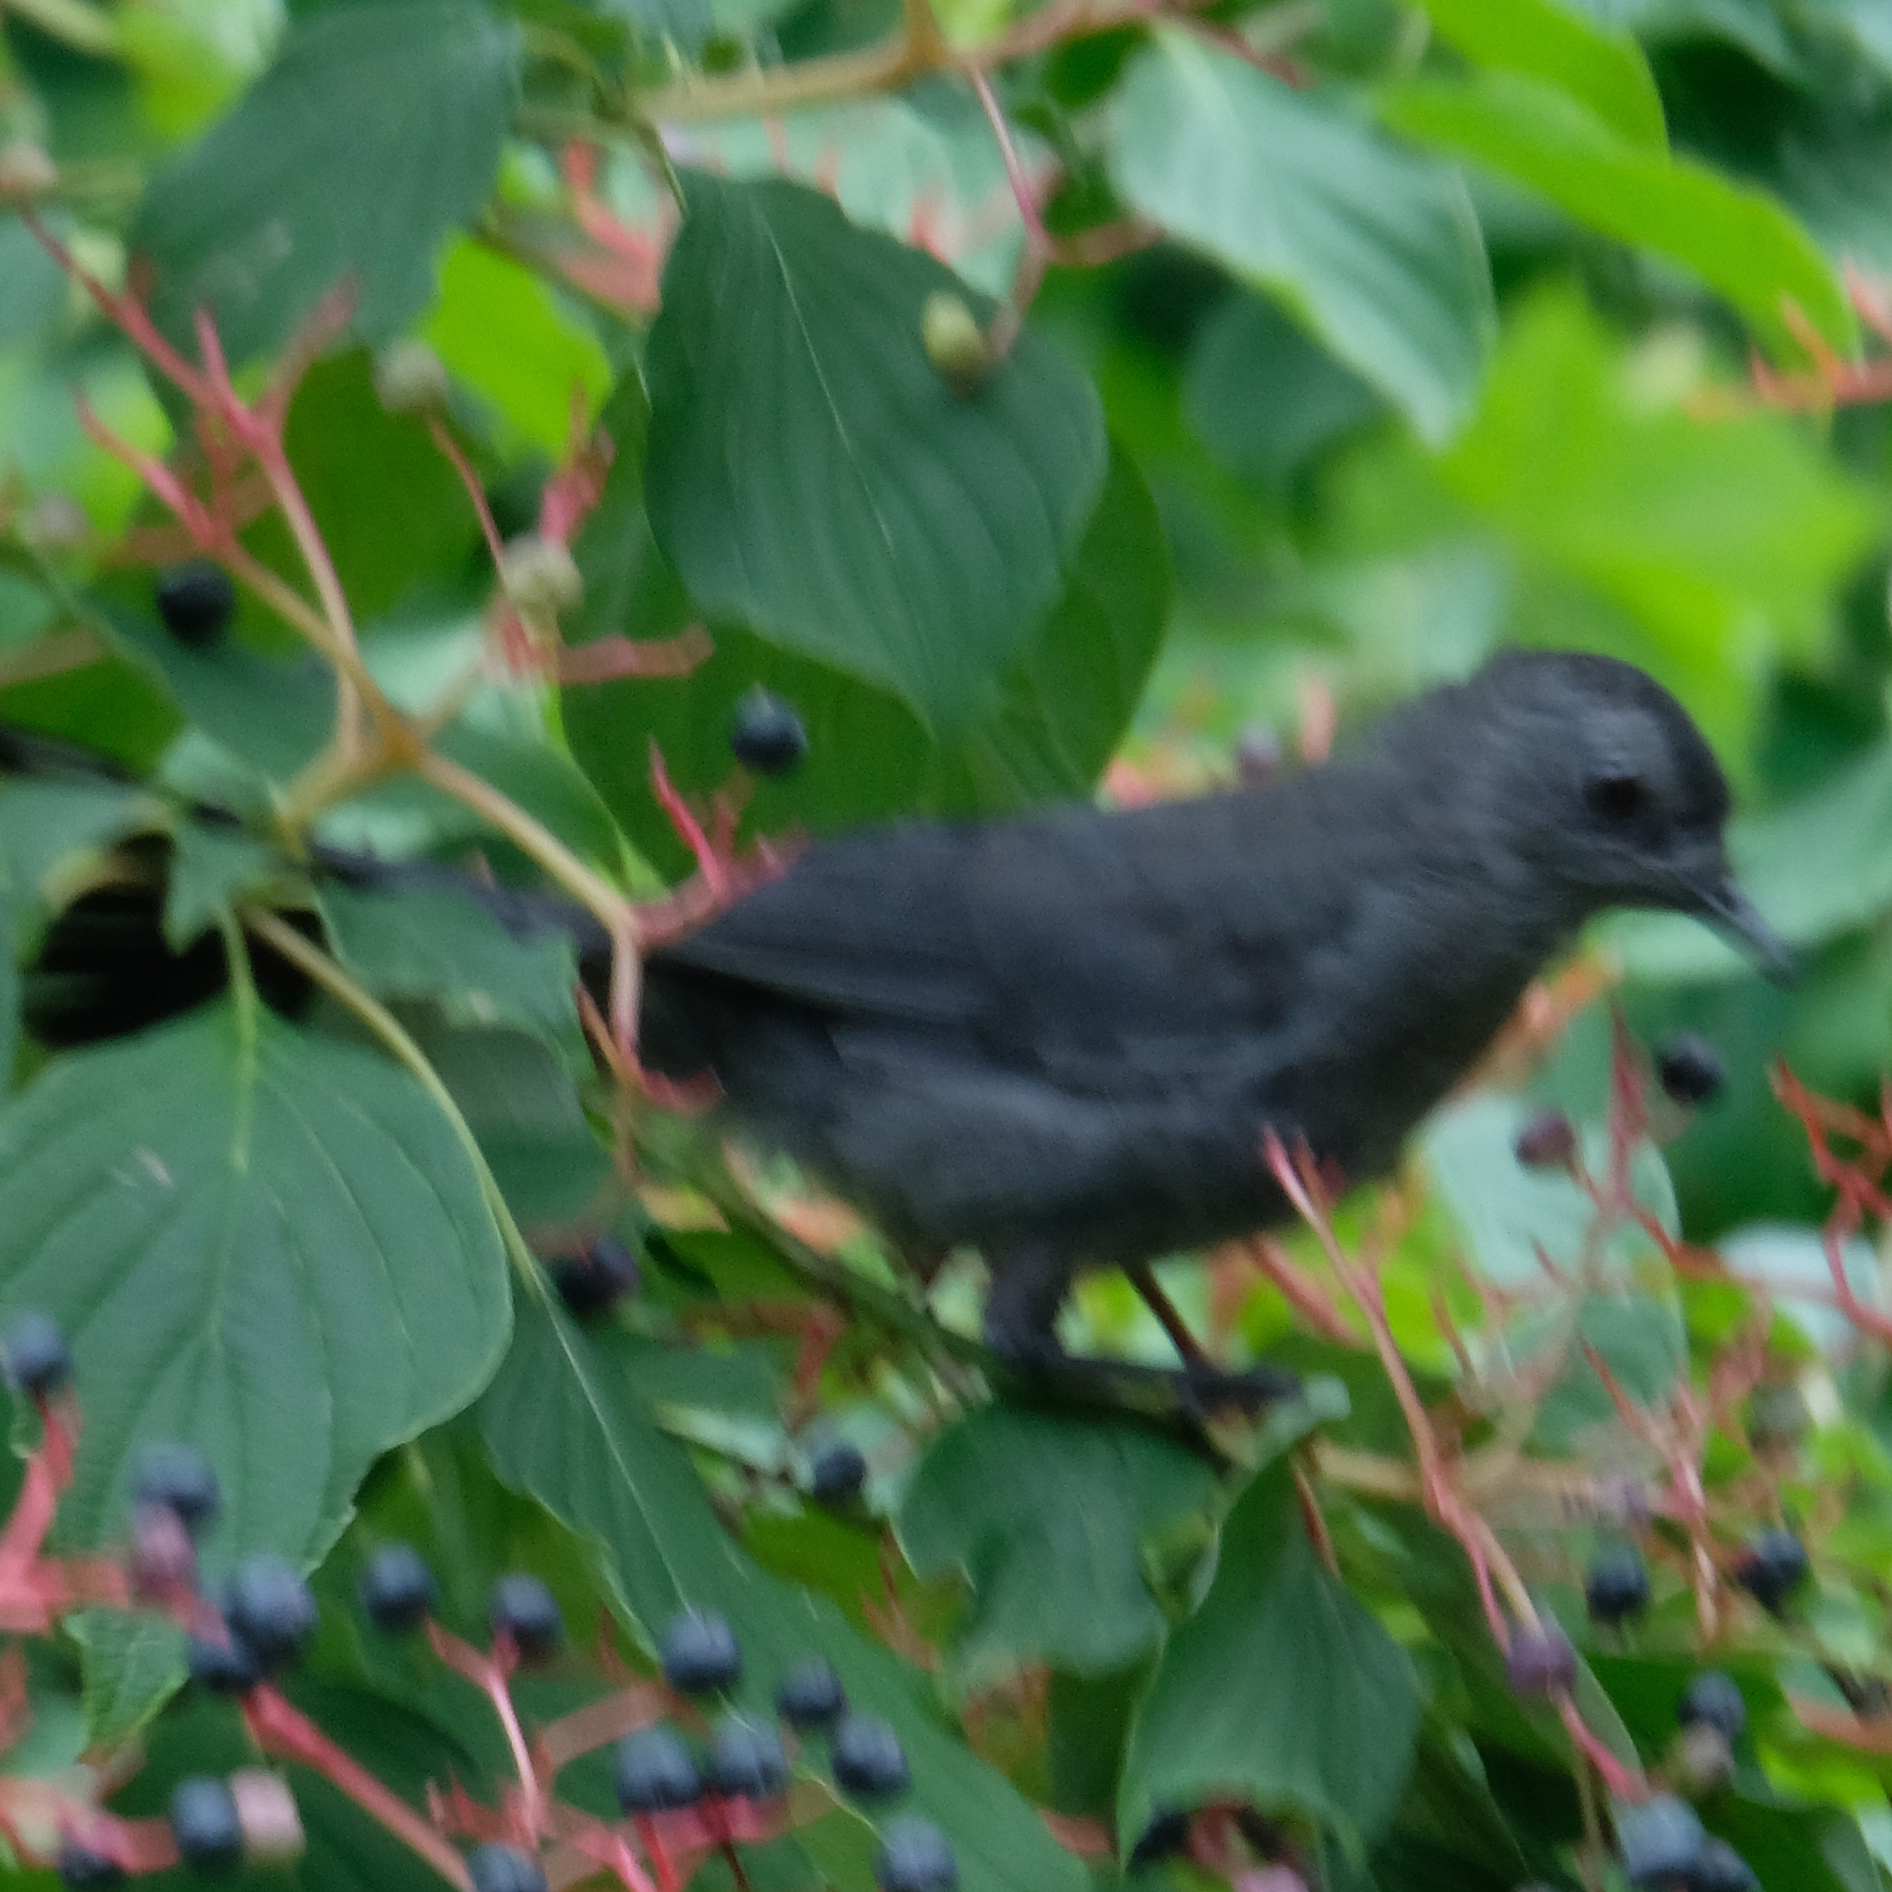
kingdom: Animalia
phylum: Chordata
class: Aves
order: Passeriformes
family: Mimidae
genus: Dumetella
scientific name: Dumetella carolinensis
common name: Gray catbird
